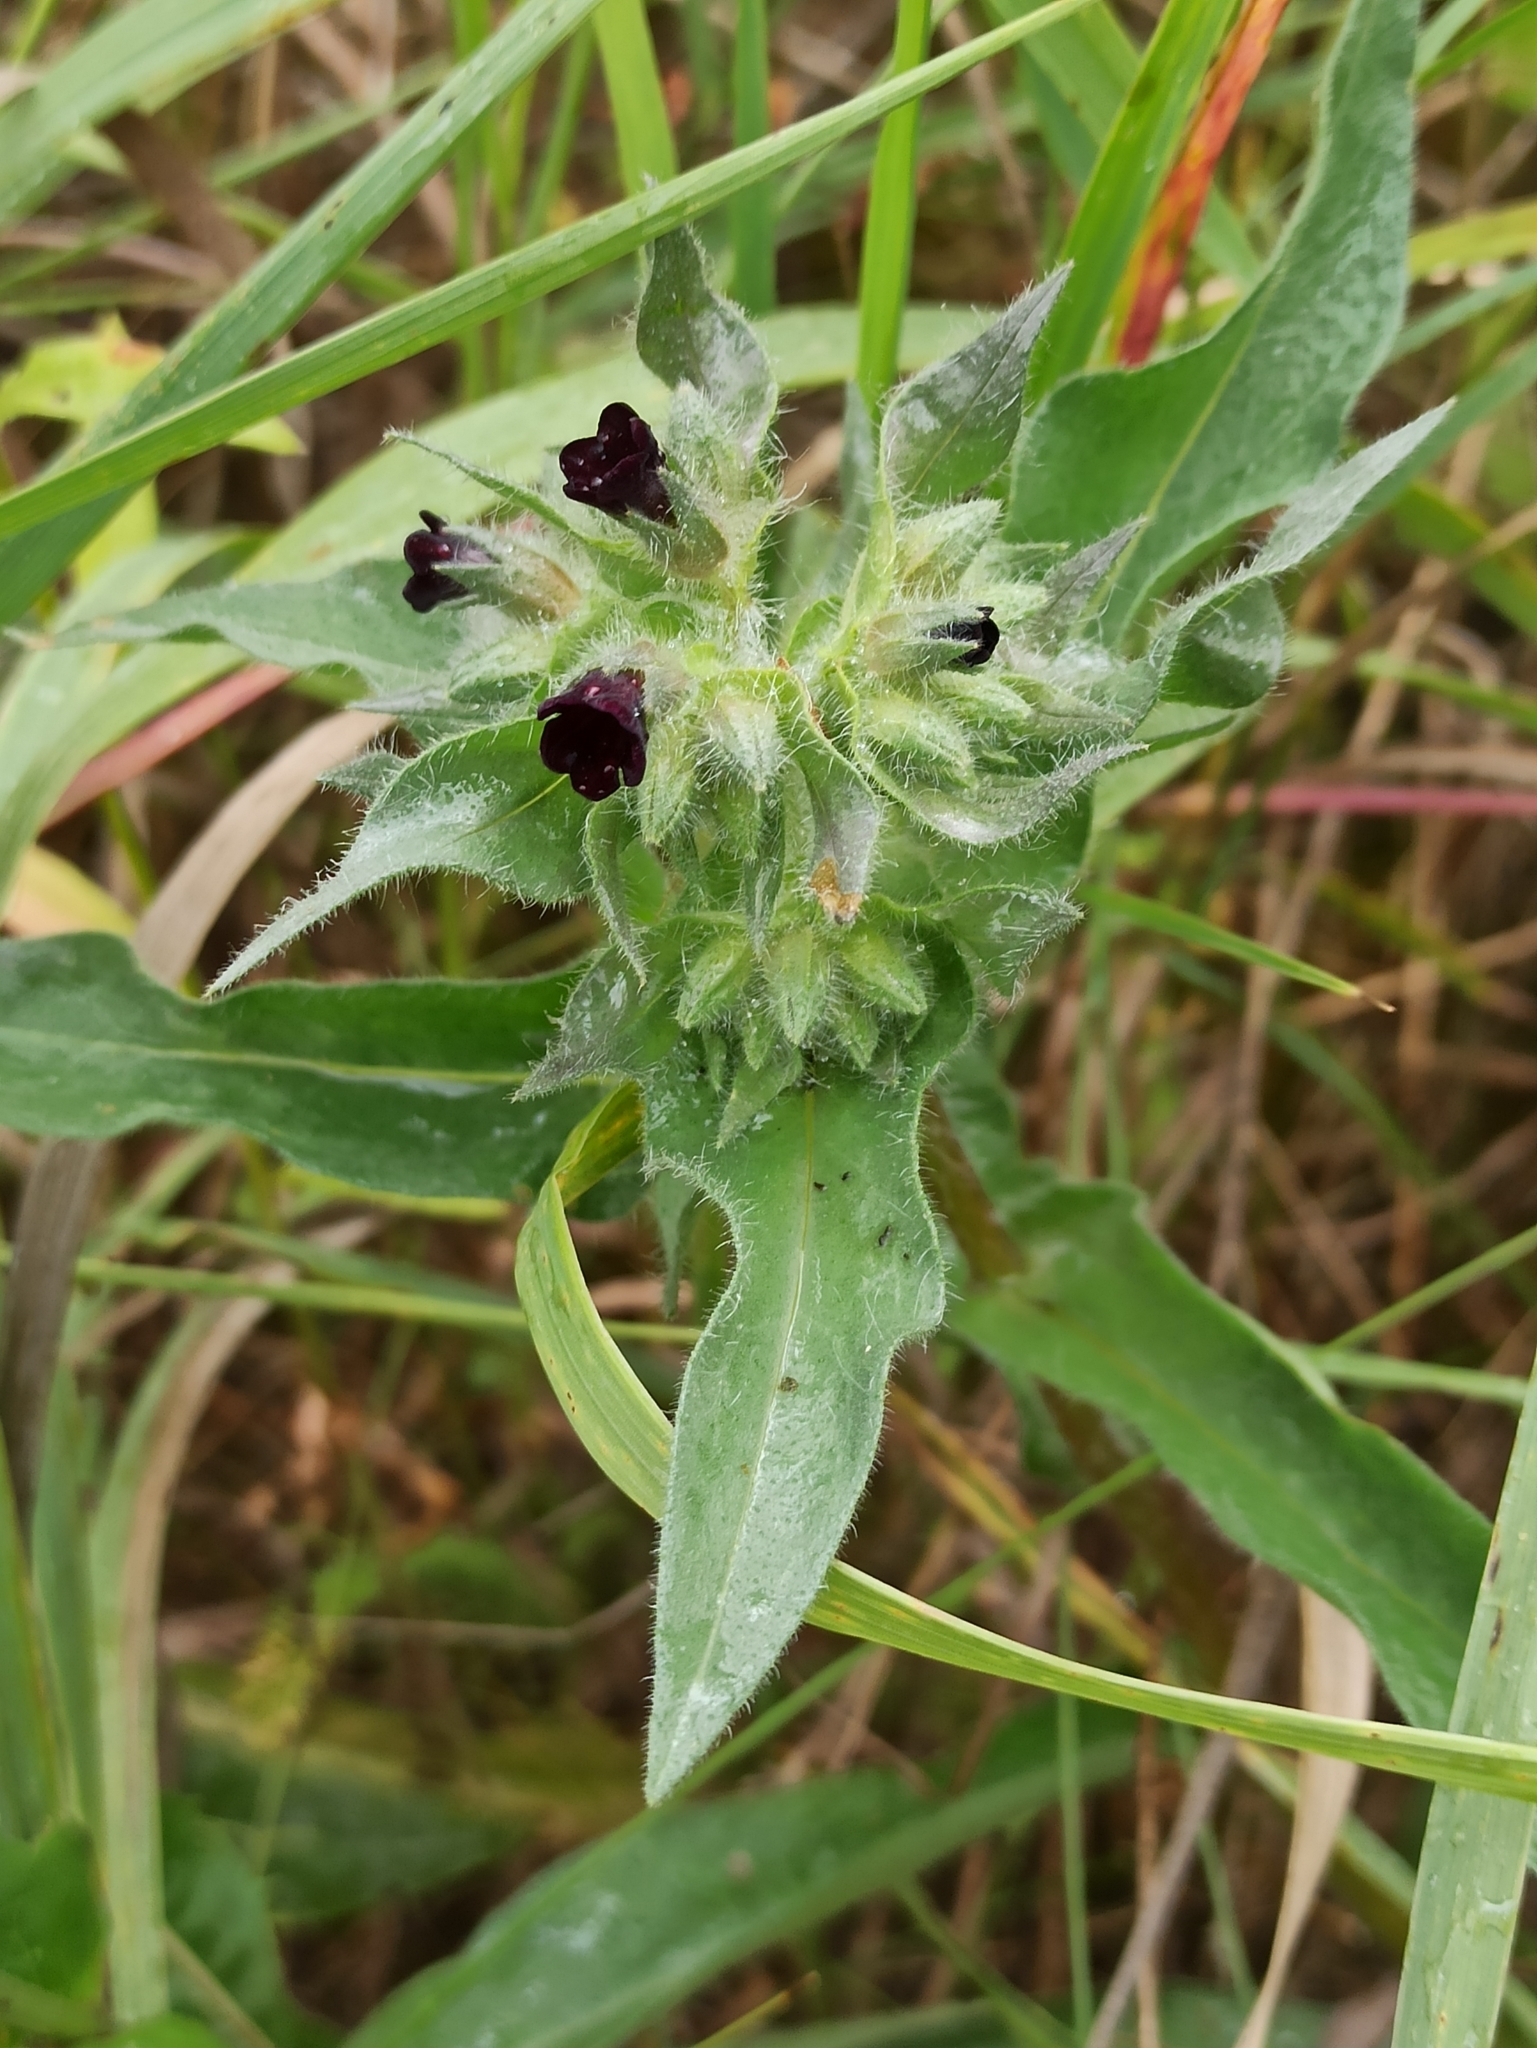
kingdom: Plantae
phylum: Tracheophyta
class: Magnoliopsida
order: Boraginales
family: Boraginaceae
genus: Nonea
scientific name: Nonea pulla
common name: Brown nonea
